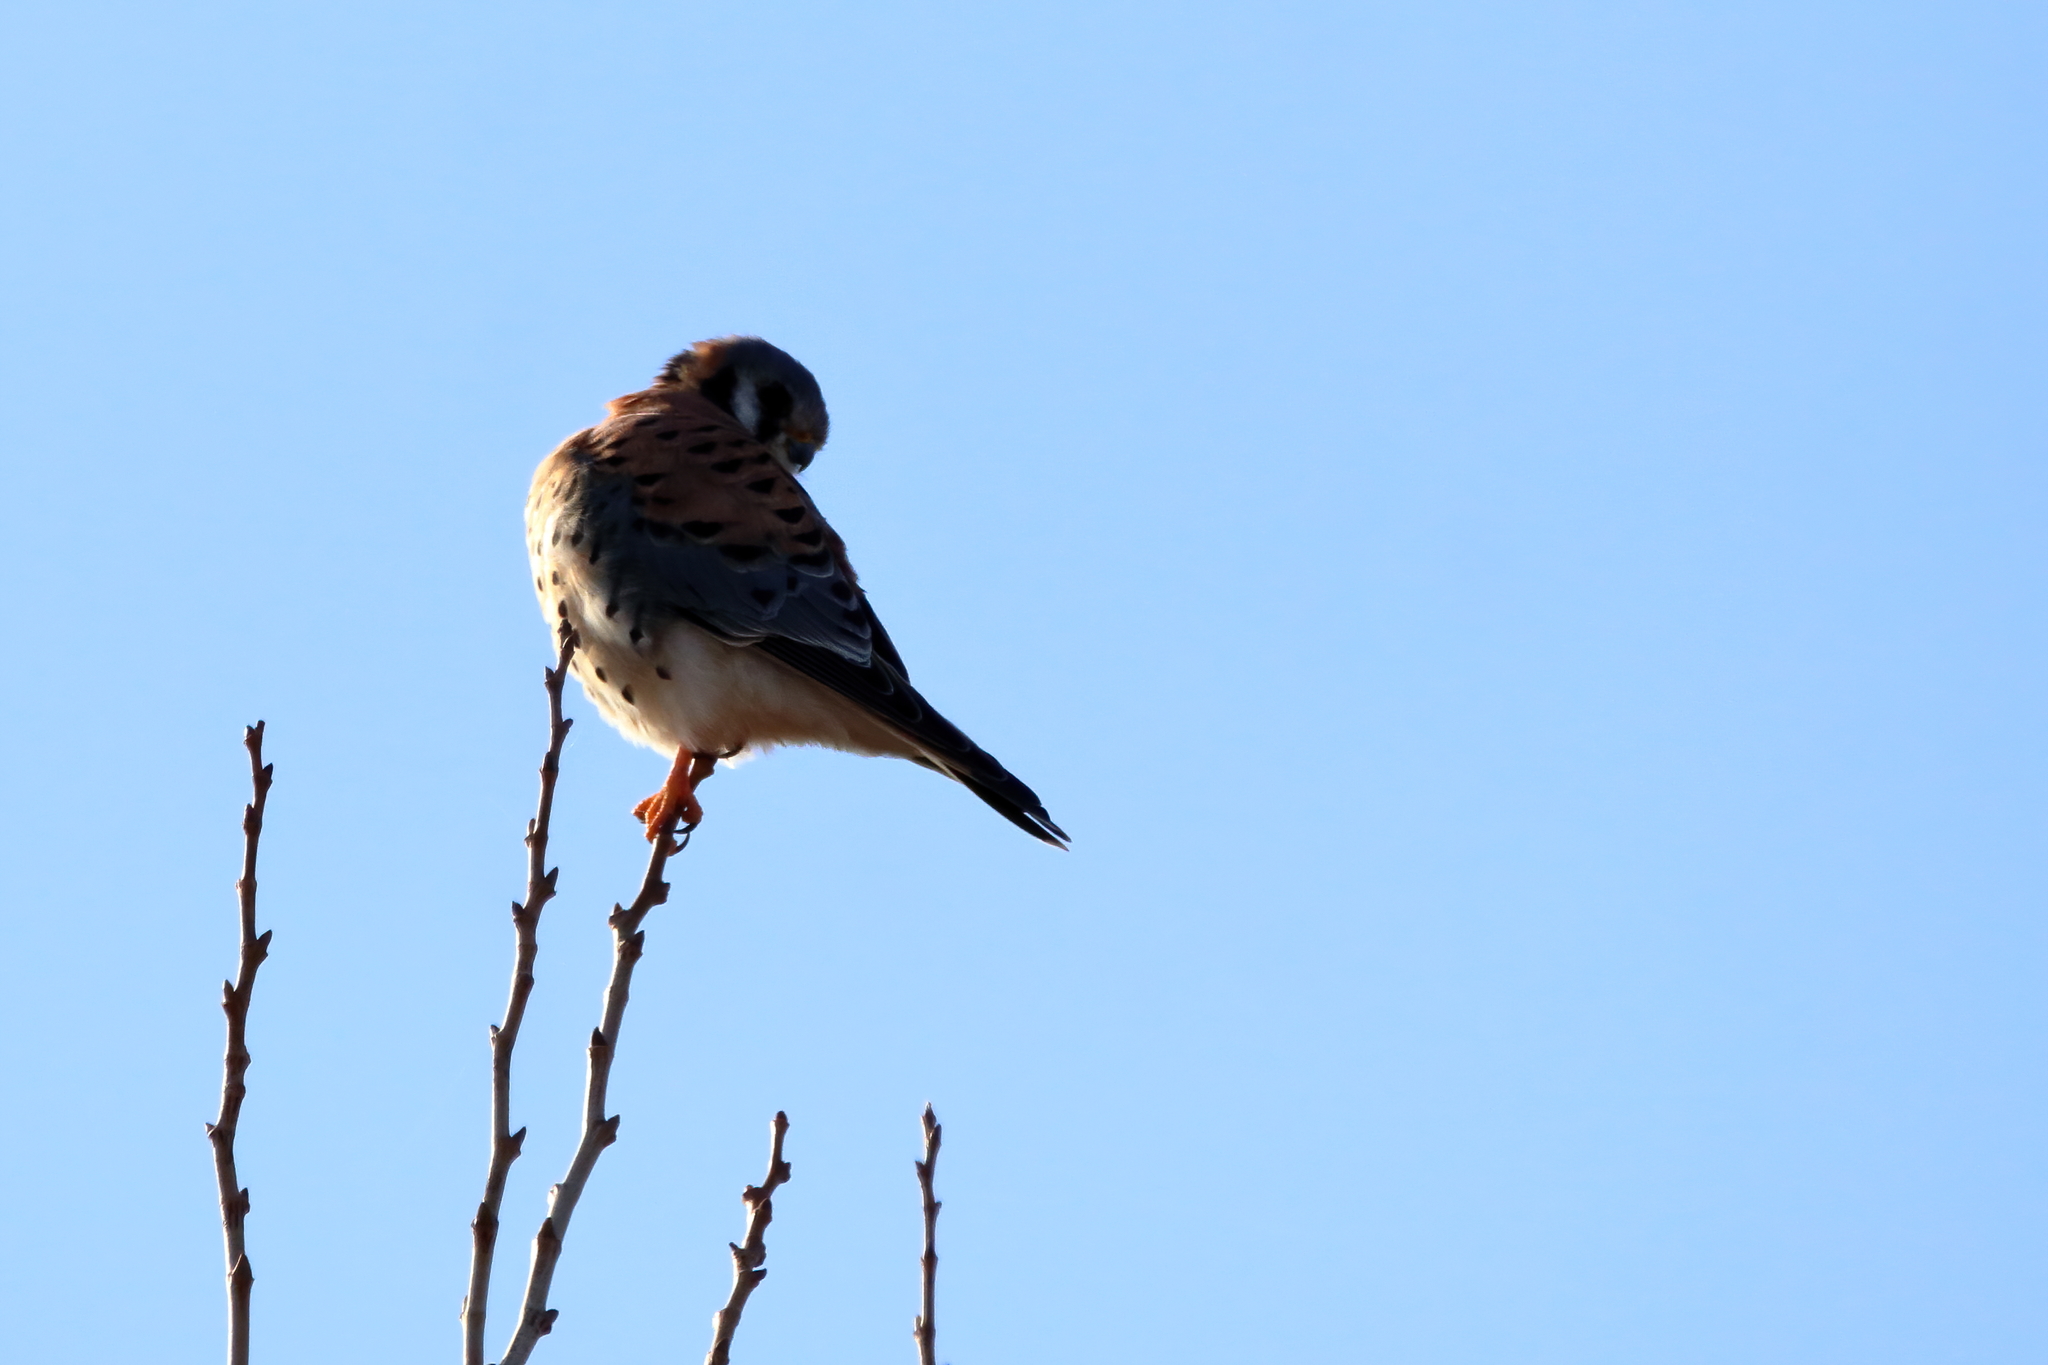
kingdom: Animalia
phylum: Chordata
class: Aves
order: Falconiformes
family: Falconidae
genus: Falco
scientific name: Falco sparverius
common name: American kestrel
